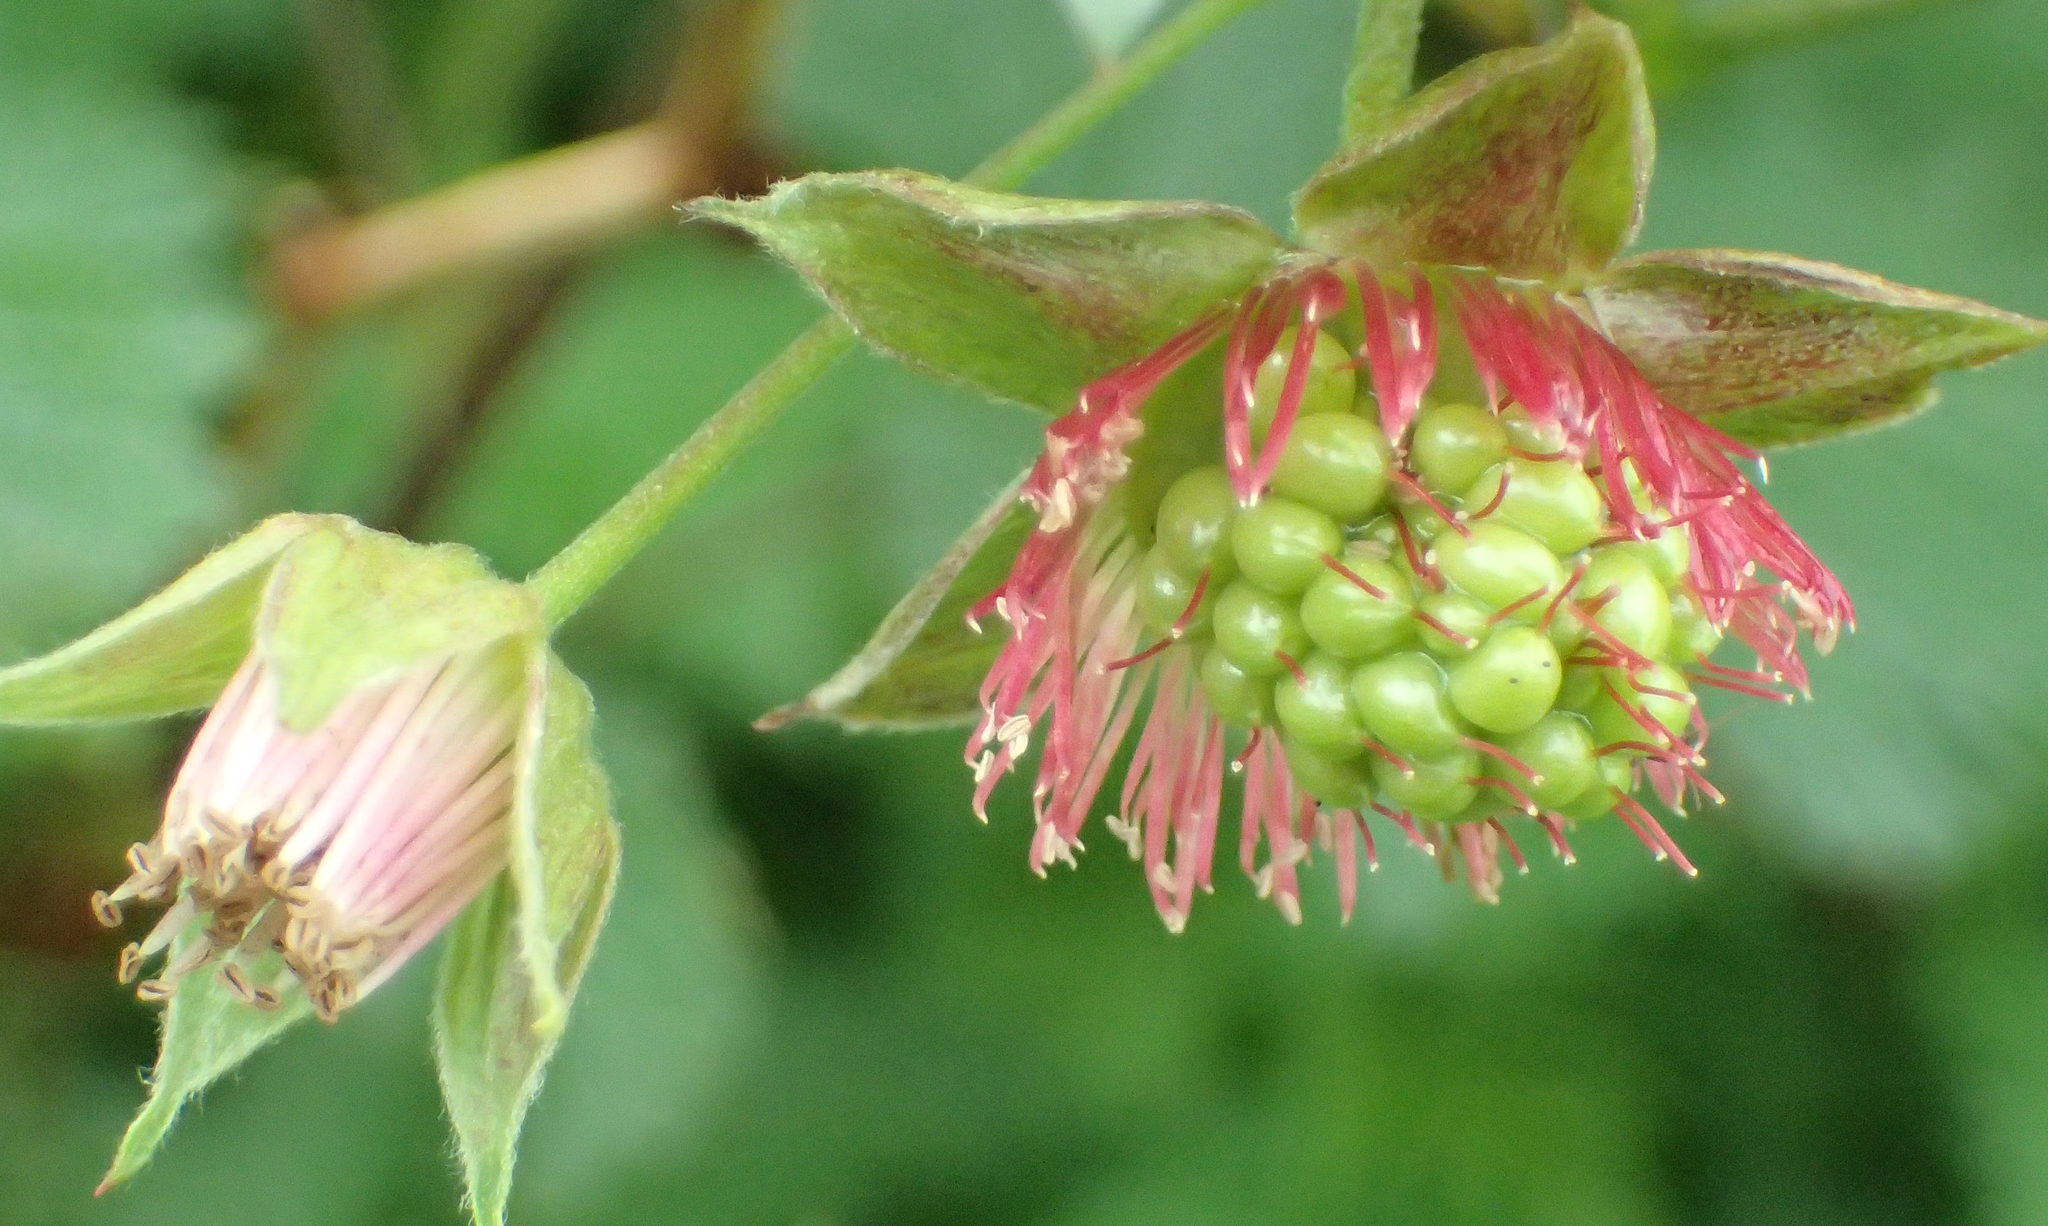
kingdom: Plantae
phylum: Tracheophyta
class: Magnoliopsida
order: Rosales
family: Rosaceae
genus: Rubus
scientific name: Rubus spectabilis
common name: Salmonberry
